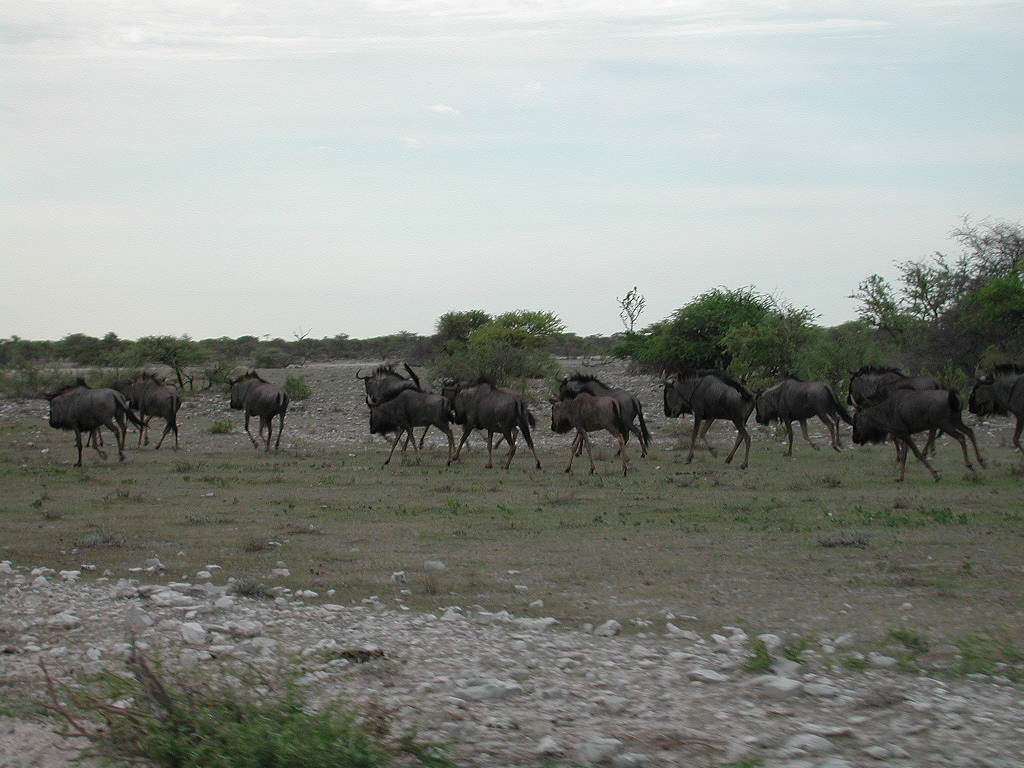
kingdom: Animalia
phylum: Chordata
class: Mammalia
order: Artiodactyla
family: Bovidae
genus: Connochaetes
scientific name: Connochaetes taurinus
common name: Blue wildebeest
